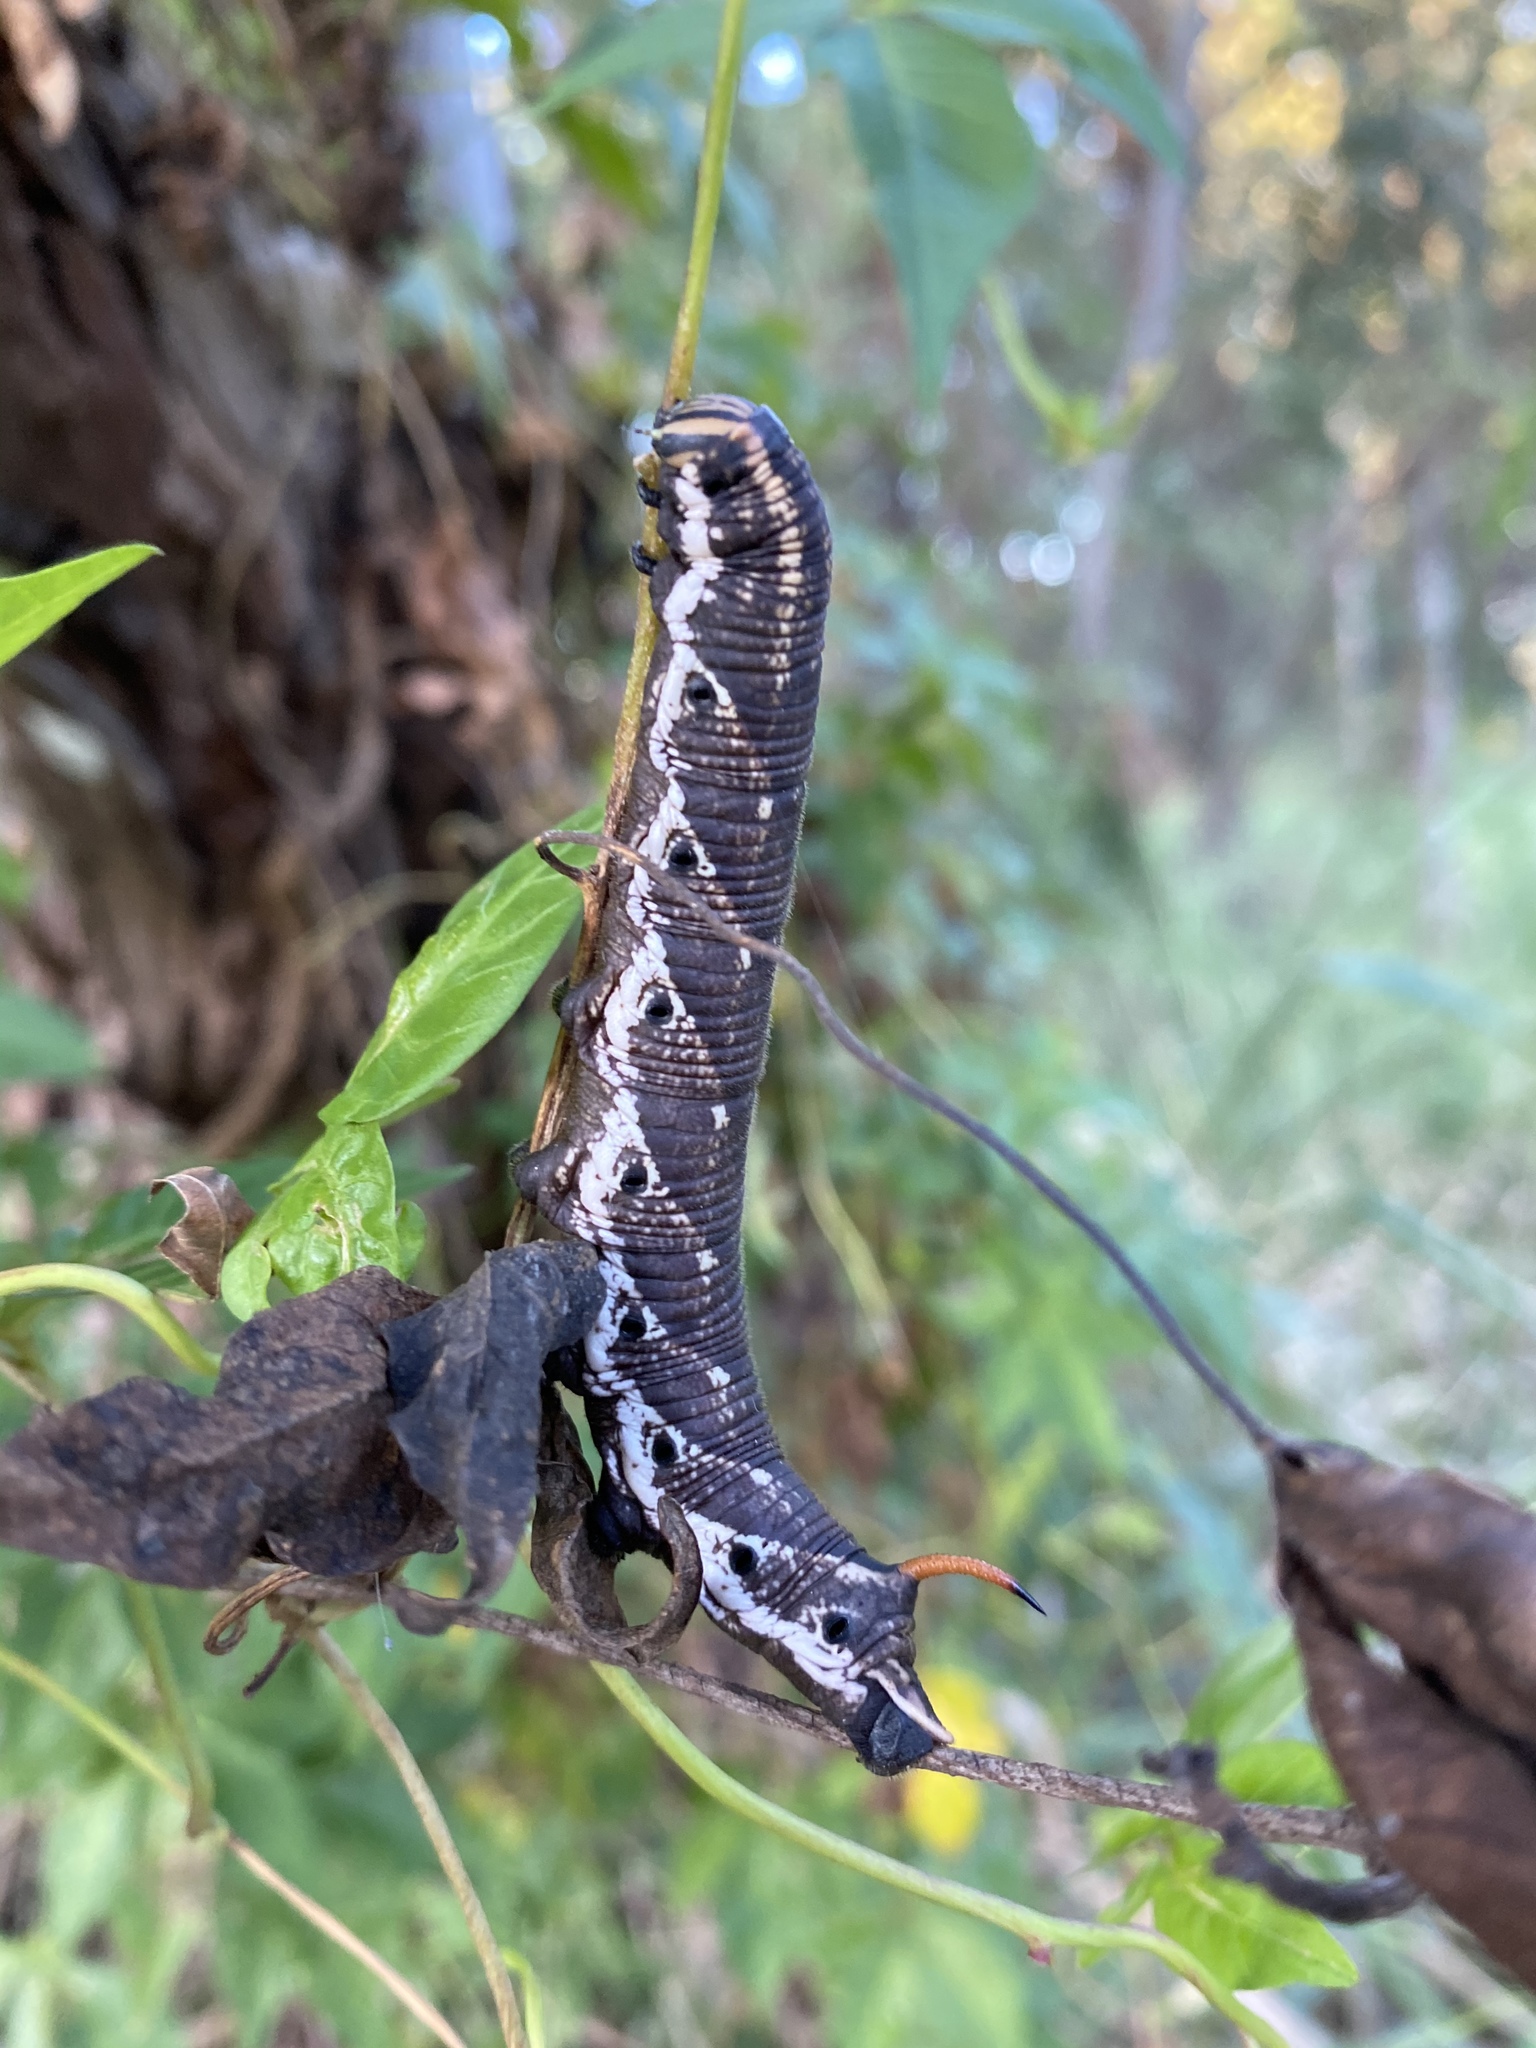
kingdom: Animalia
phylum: Arthropoda
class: Insecta
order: Lepidoptera
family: Sphingidae
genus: Agrius
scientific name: Agrius convolvuli
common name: Convolvulus hawkmoth
